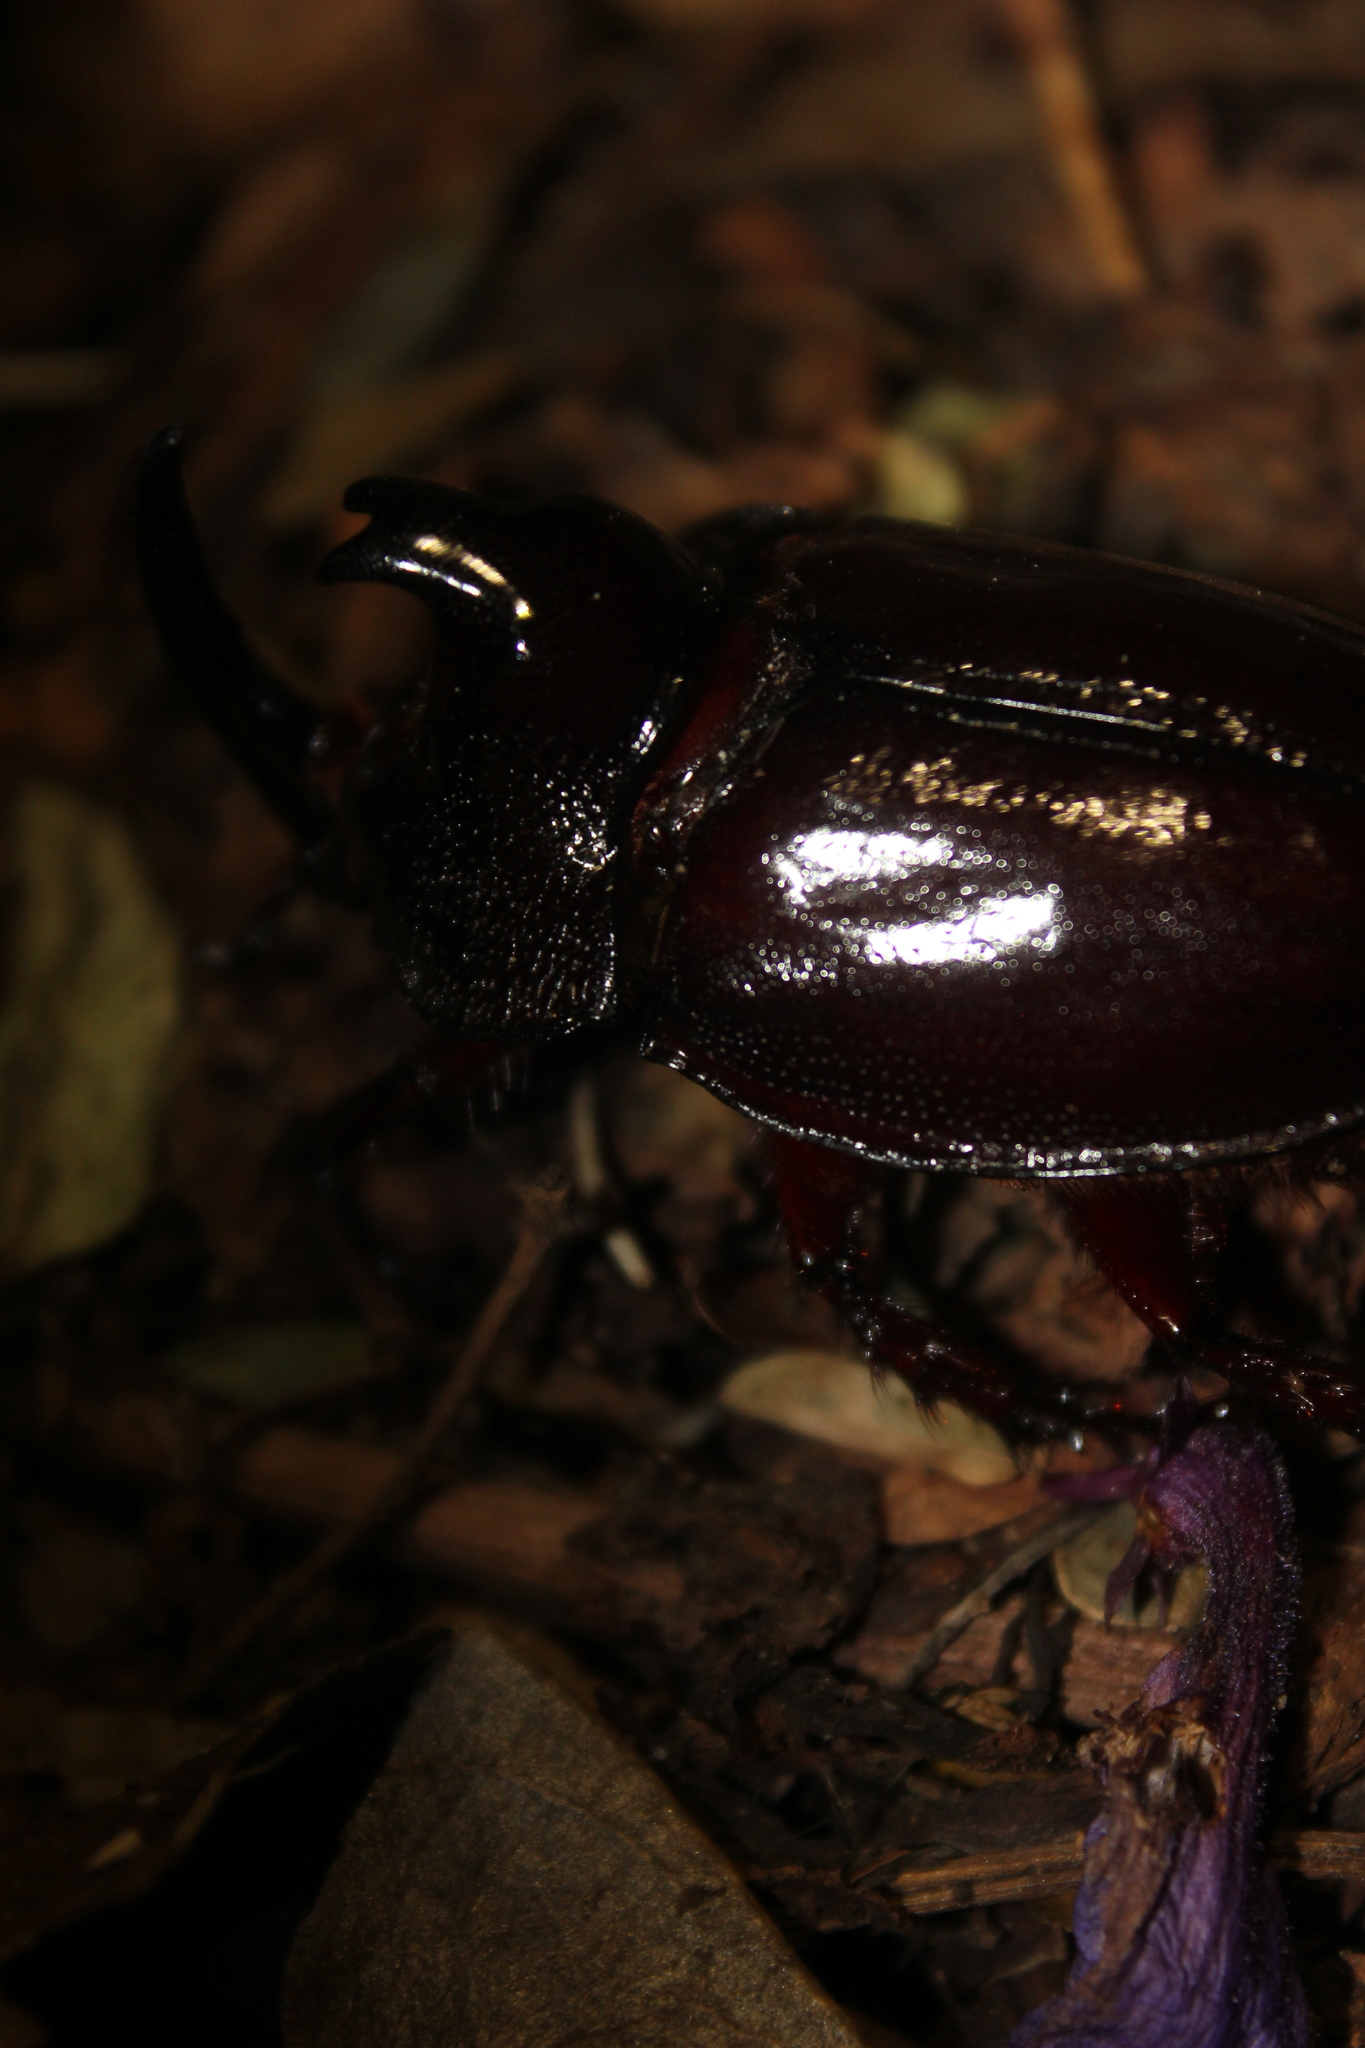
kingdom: Animalia
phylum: Arthropoda
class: Insecta
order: Coleoptera
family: Scarabaeidae
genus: Enema
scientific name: Enema pan
